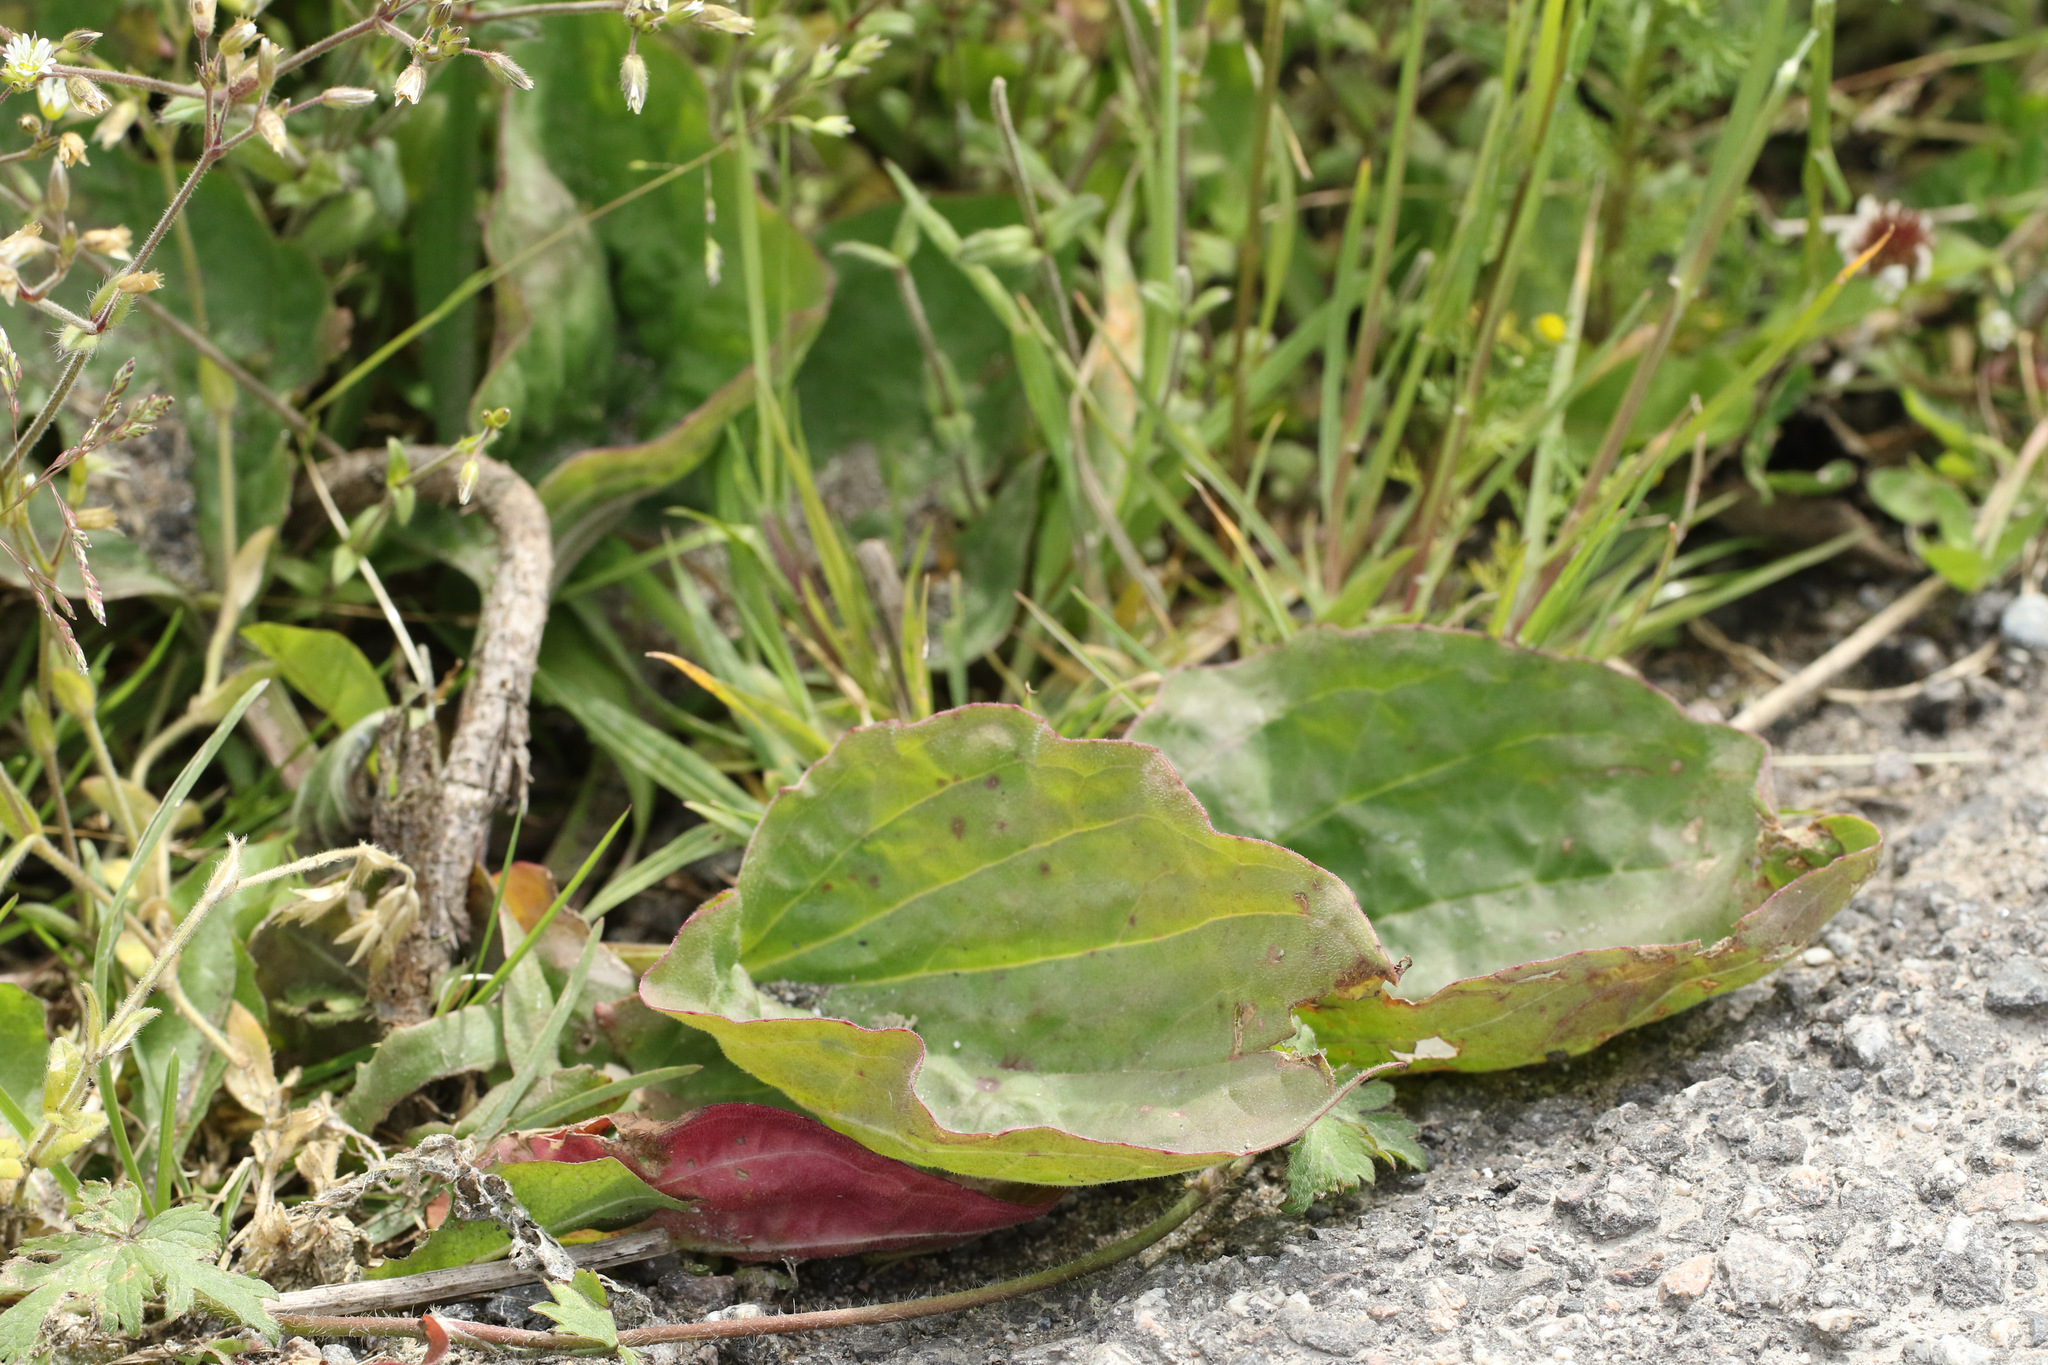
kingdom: Plantae
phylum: Tracheophyta
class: Magnoliopsida
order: Lamiales
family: Plantaginaceae
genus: Plantago
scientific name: Plantago major
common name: Common plantain
